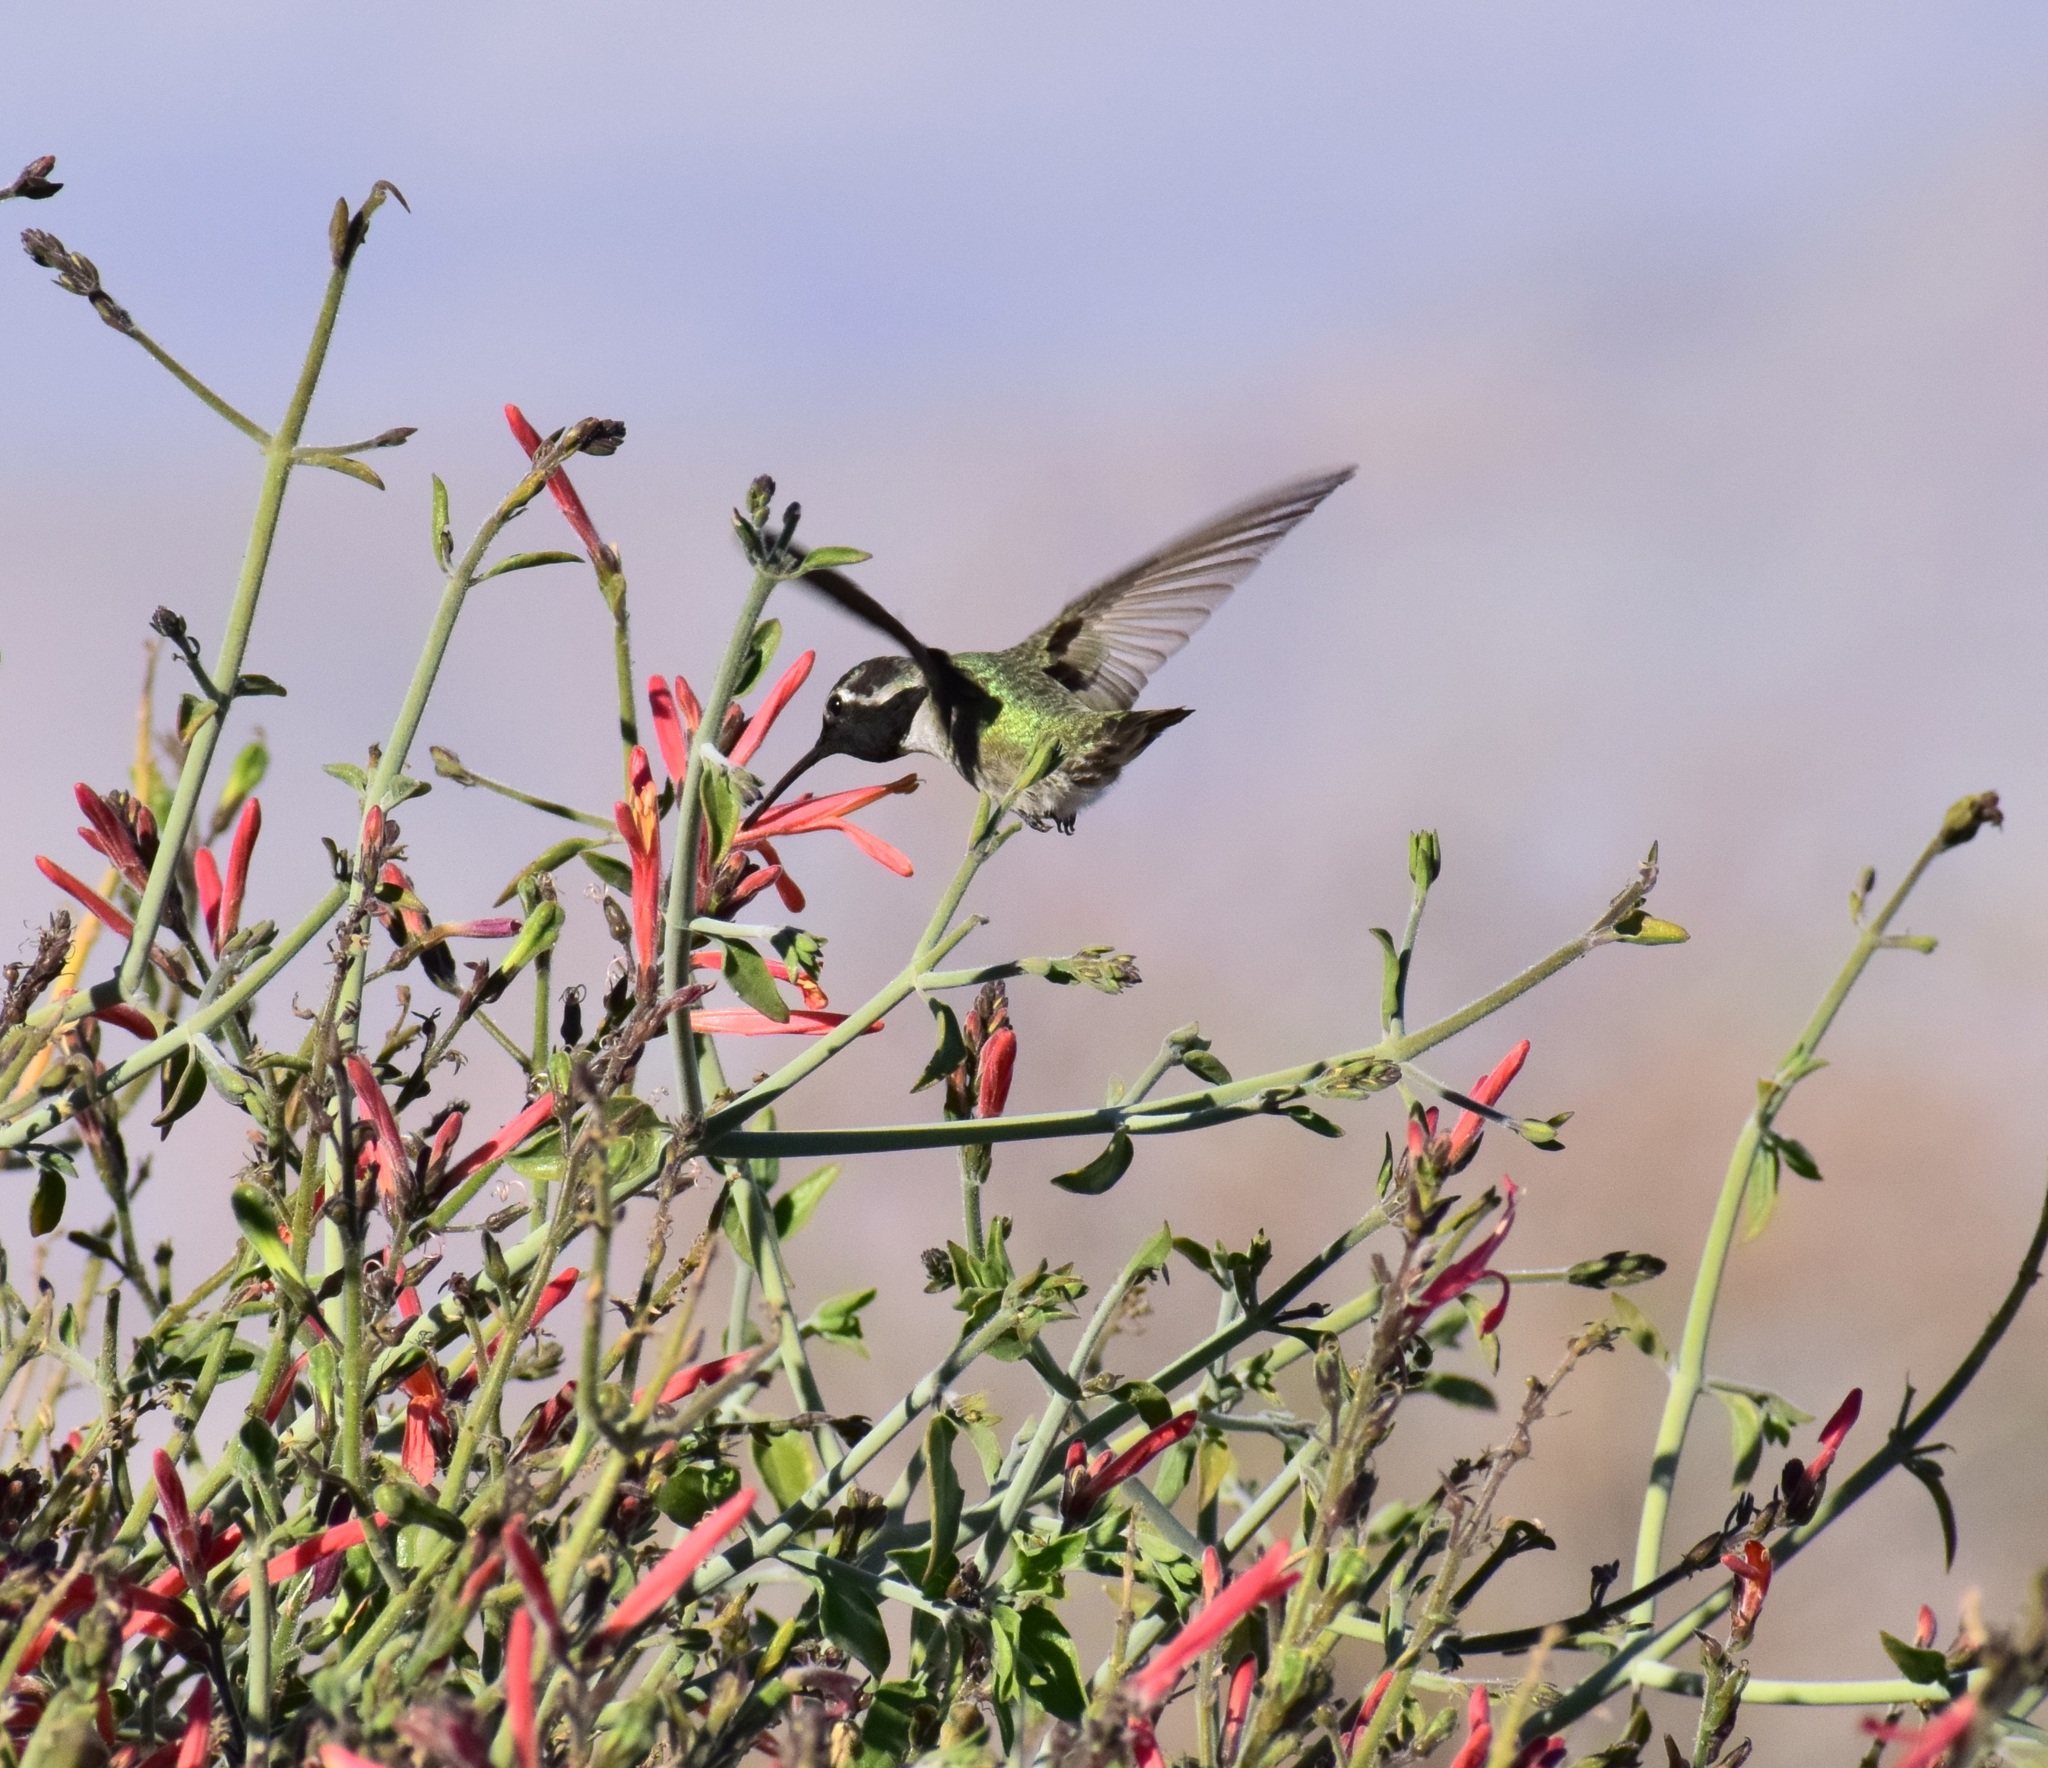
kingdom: Animalia
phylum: Chordata
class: Aves
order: Apodiformes
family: Trochilidae
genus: Calypte
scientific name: Calypte costae
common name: Costa's hummingbird
